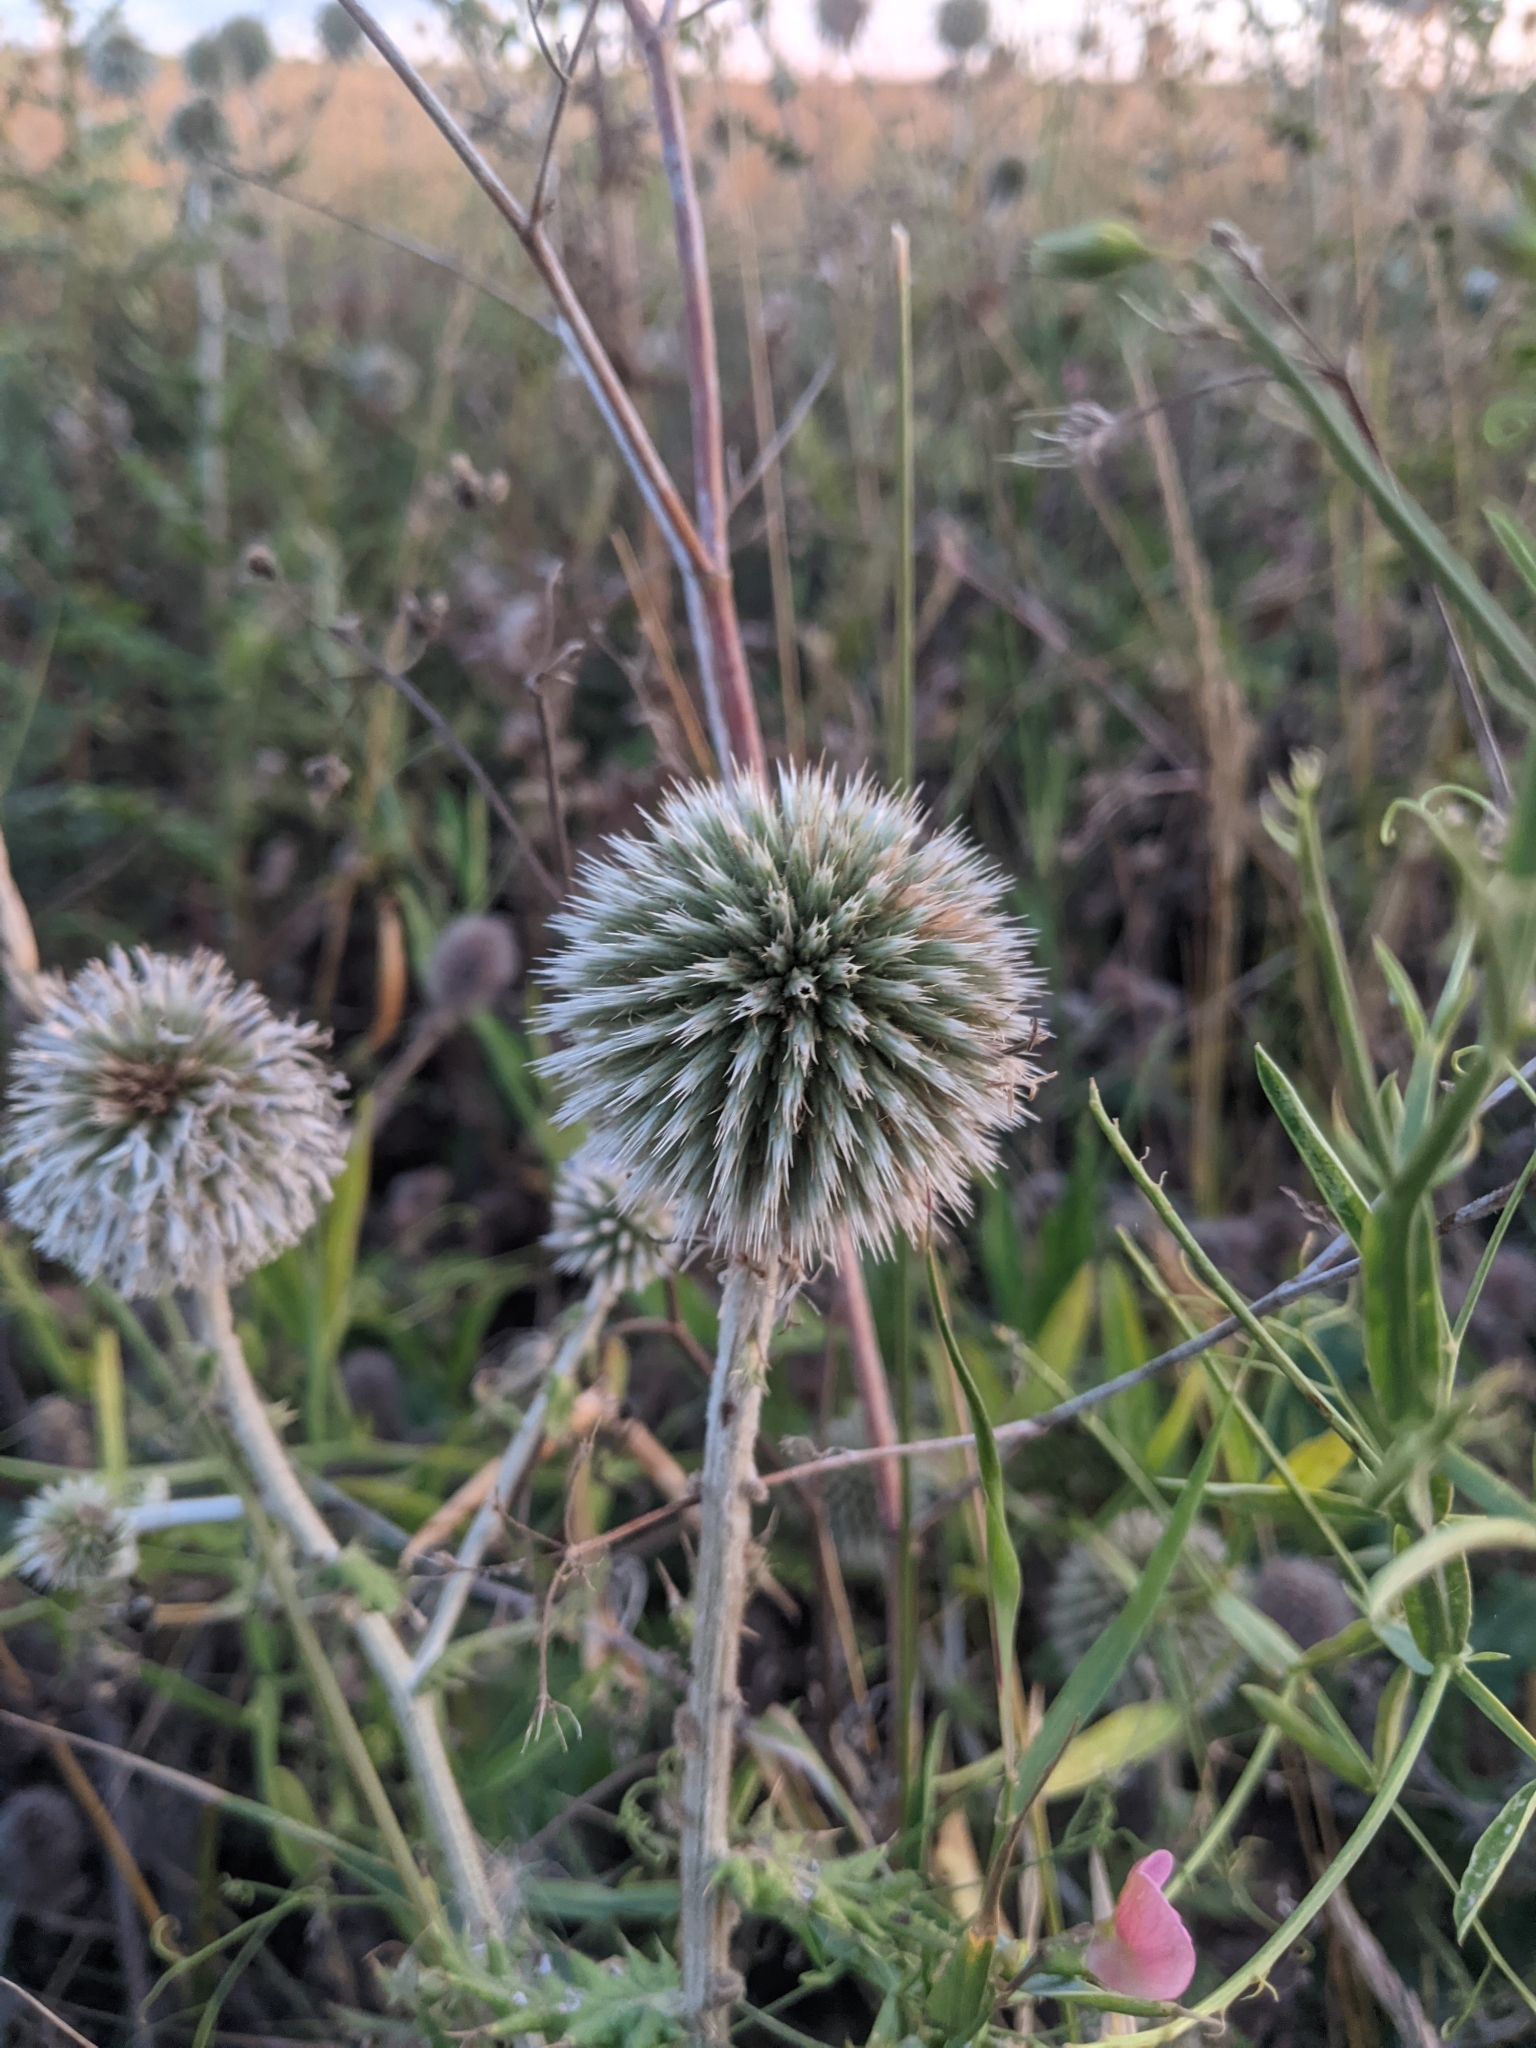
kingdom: Plantae
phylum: Tracheophyta
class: Magnoliopsida
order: Asterales
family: Asteraceae
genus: Echinops
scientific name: Echinops sphaerocephalus
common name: Glandular globe-thistle
